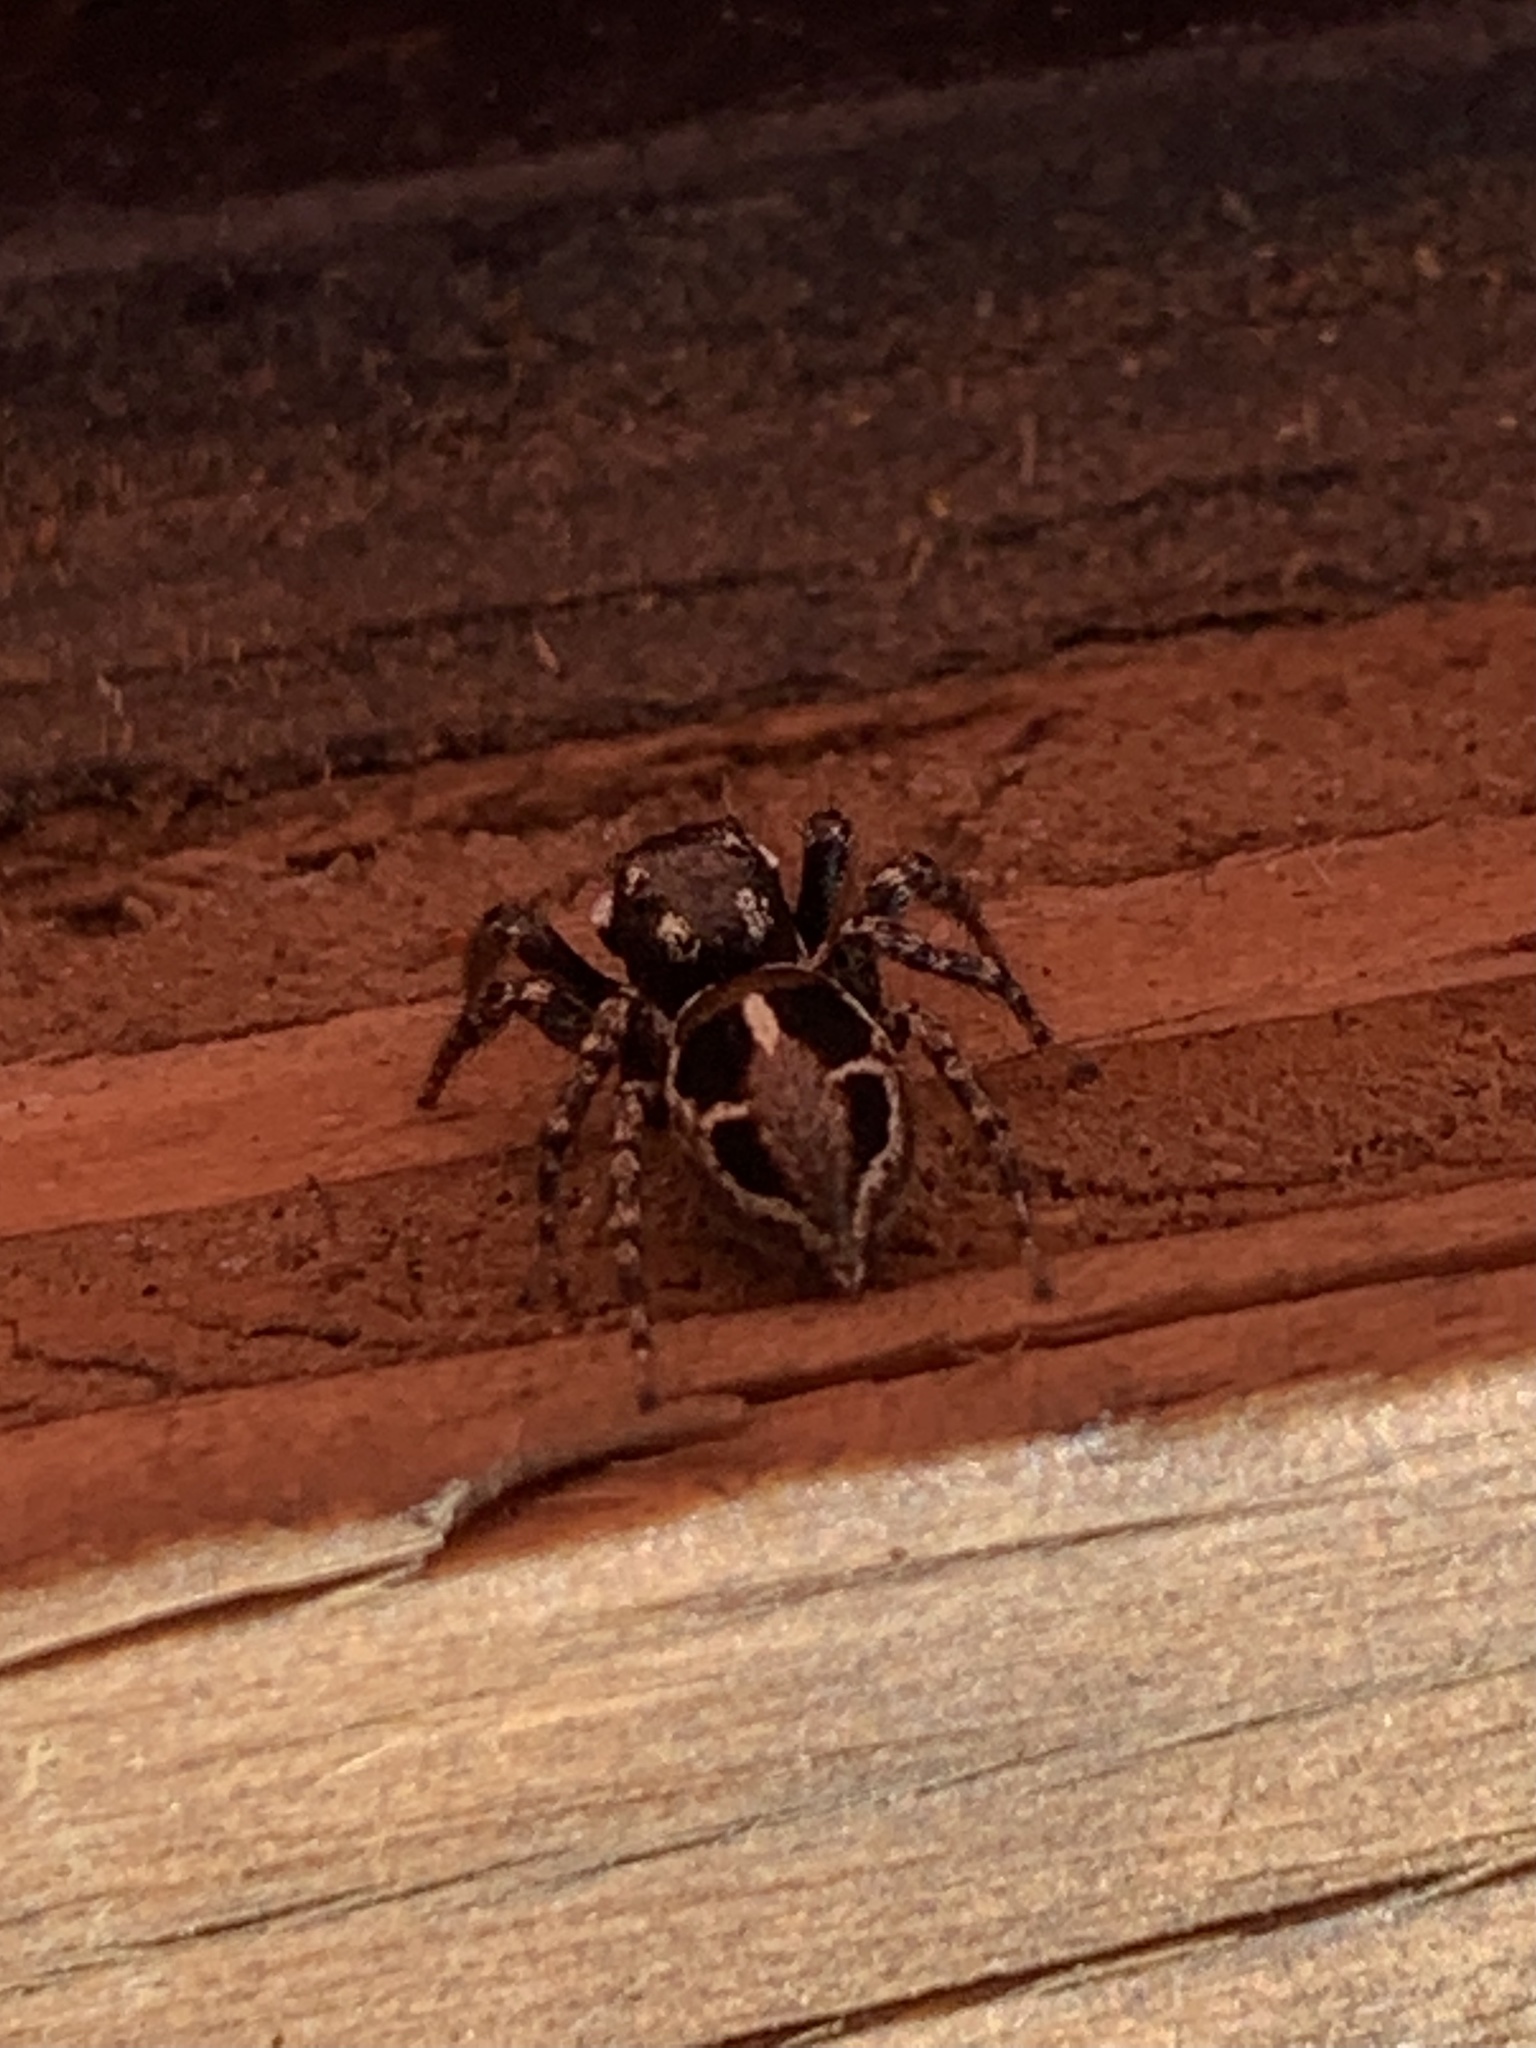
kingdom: Animalia
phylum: Arthropoda
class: Arachnida
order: Araneae
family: Salticidae
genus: Anasaitis
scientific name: Anasaitis canosa
